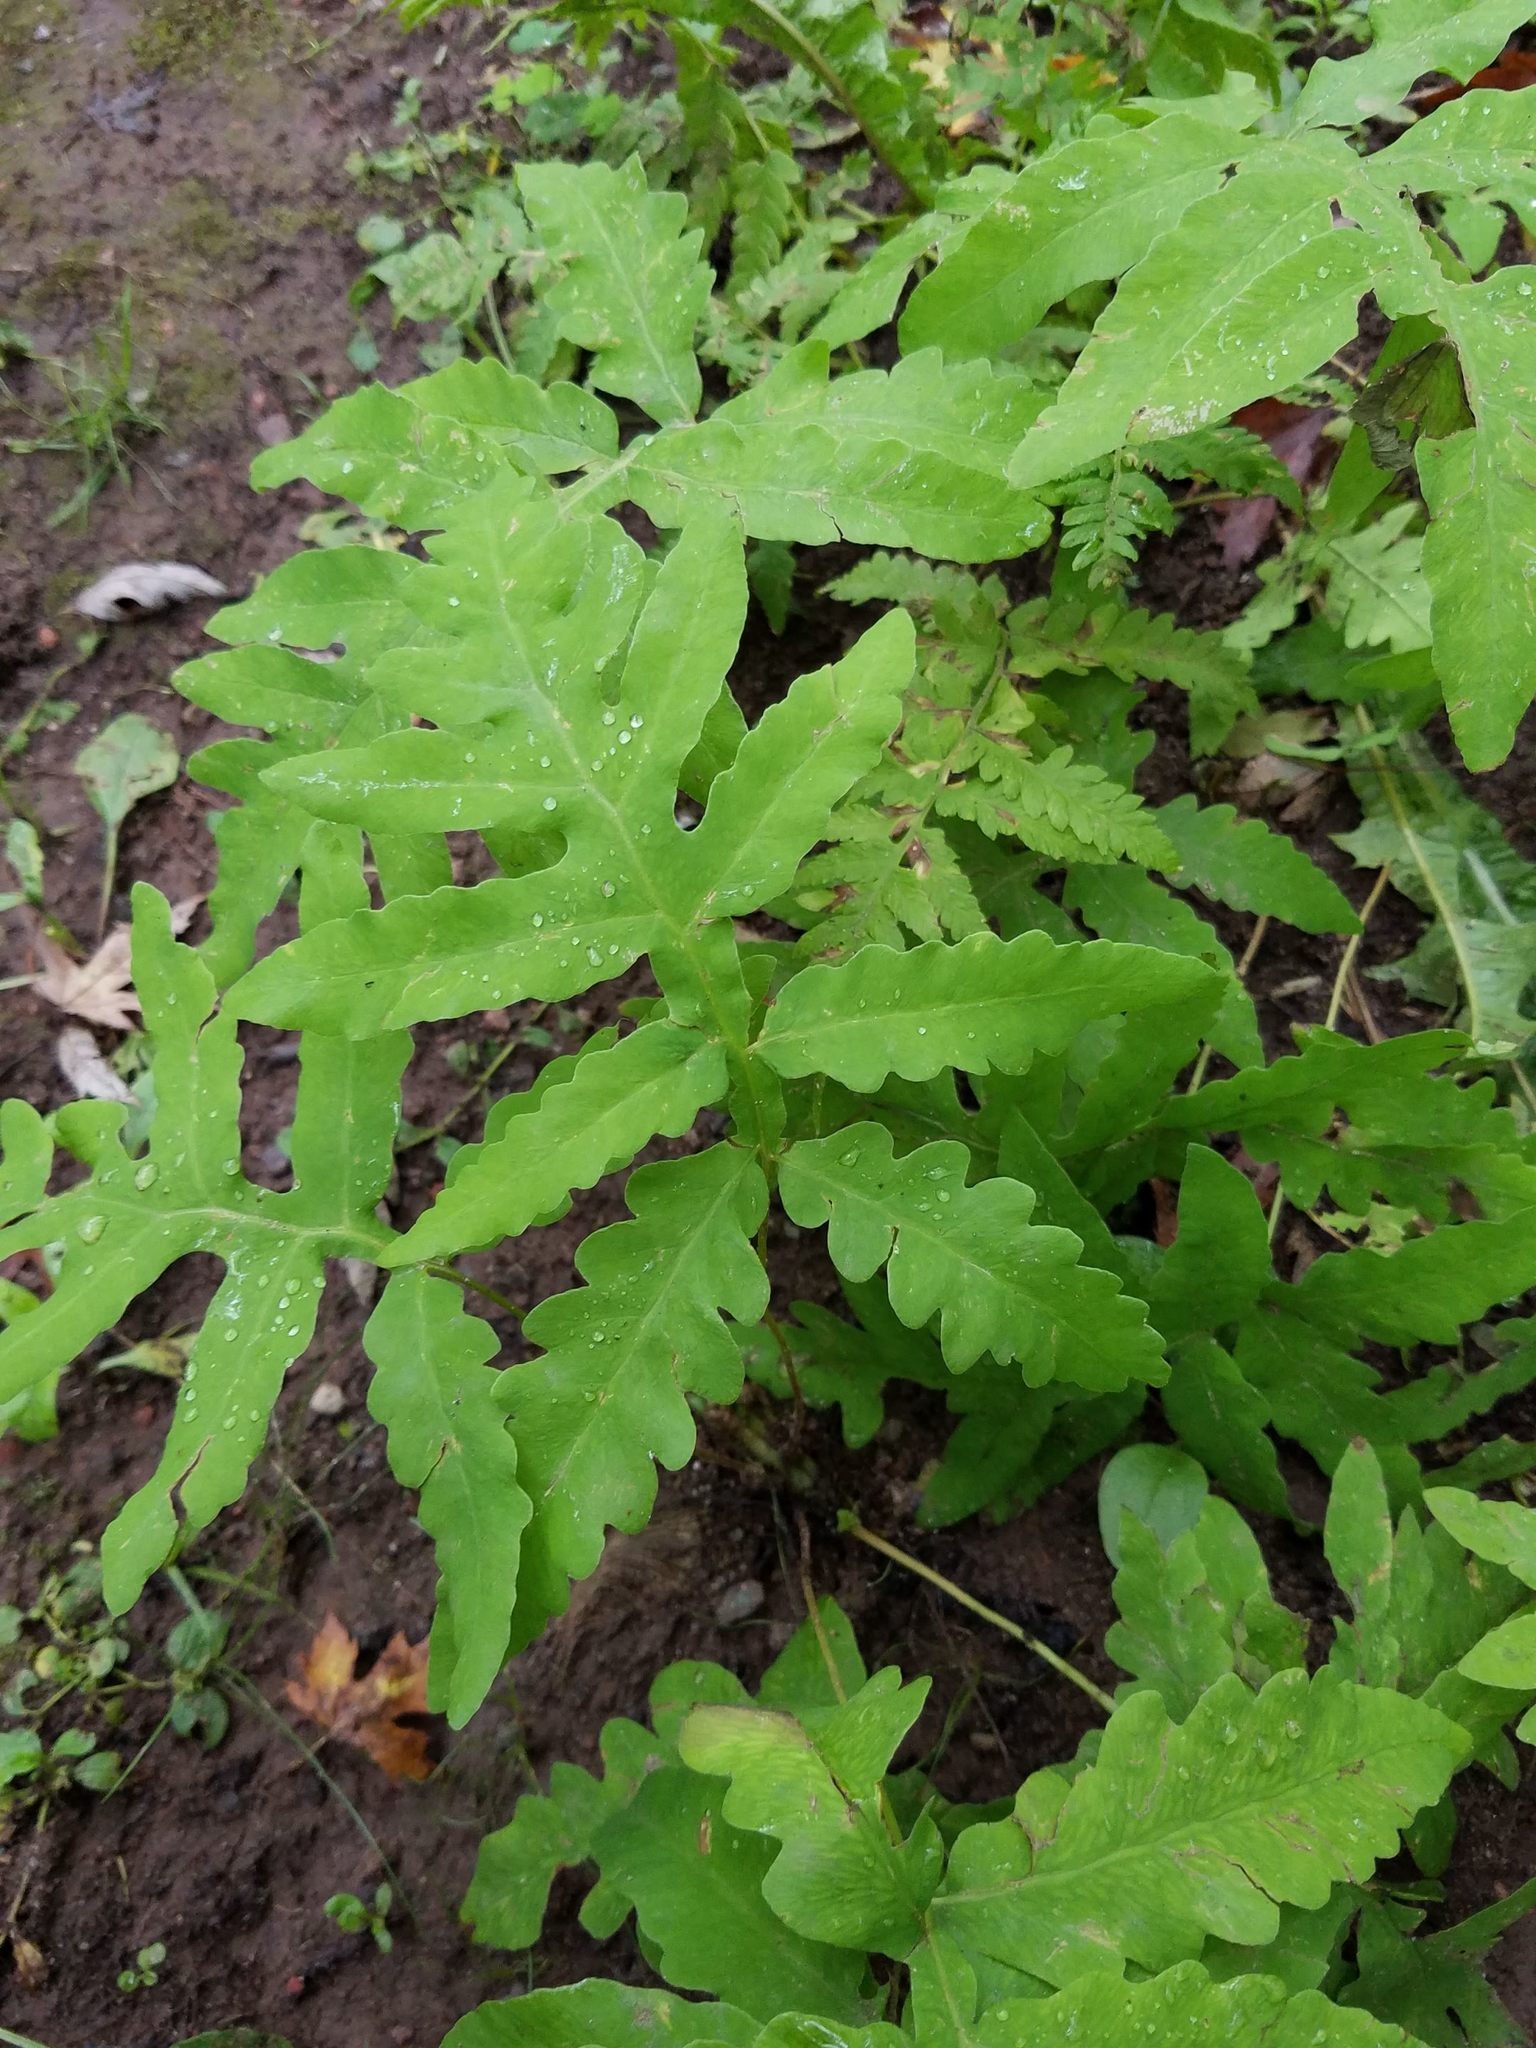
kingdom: Plantae
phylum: Tracheophyta
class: Polypodiopsida
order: Polypodiales
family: Onocleaceae
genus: Onoclea
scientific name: Onoclea sensibilis
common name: Sensitive fern
